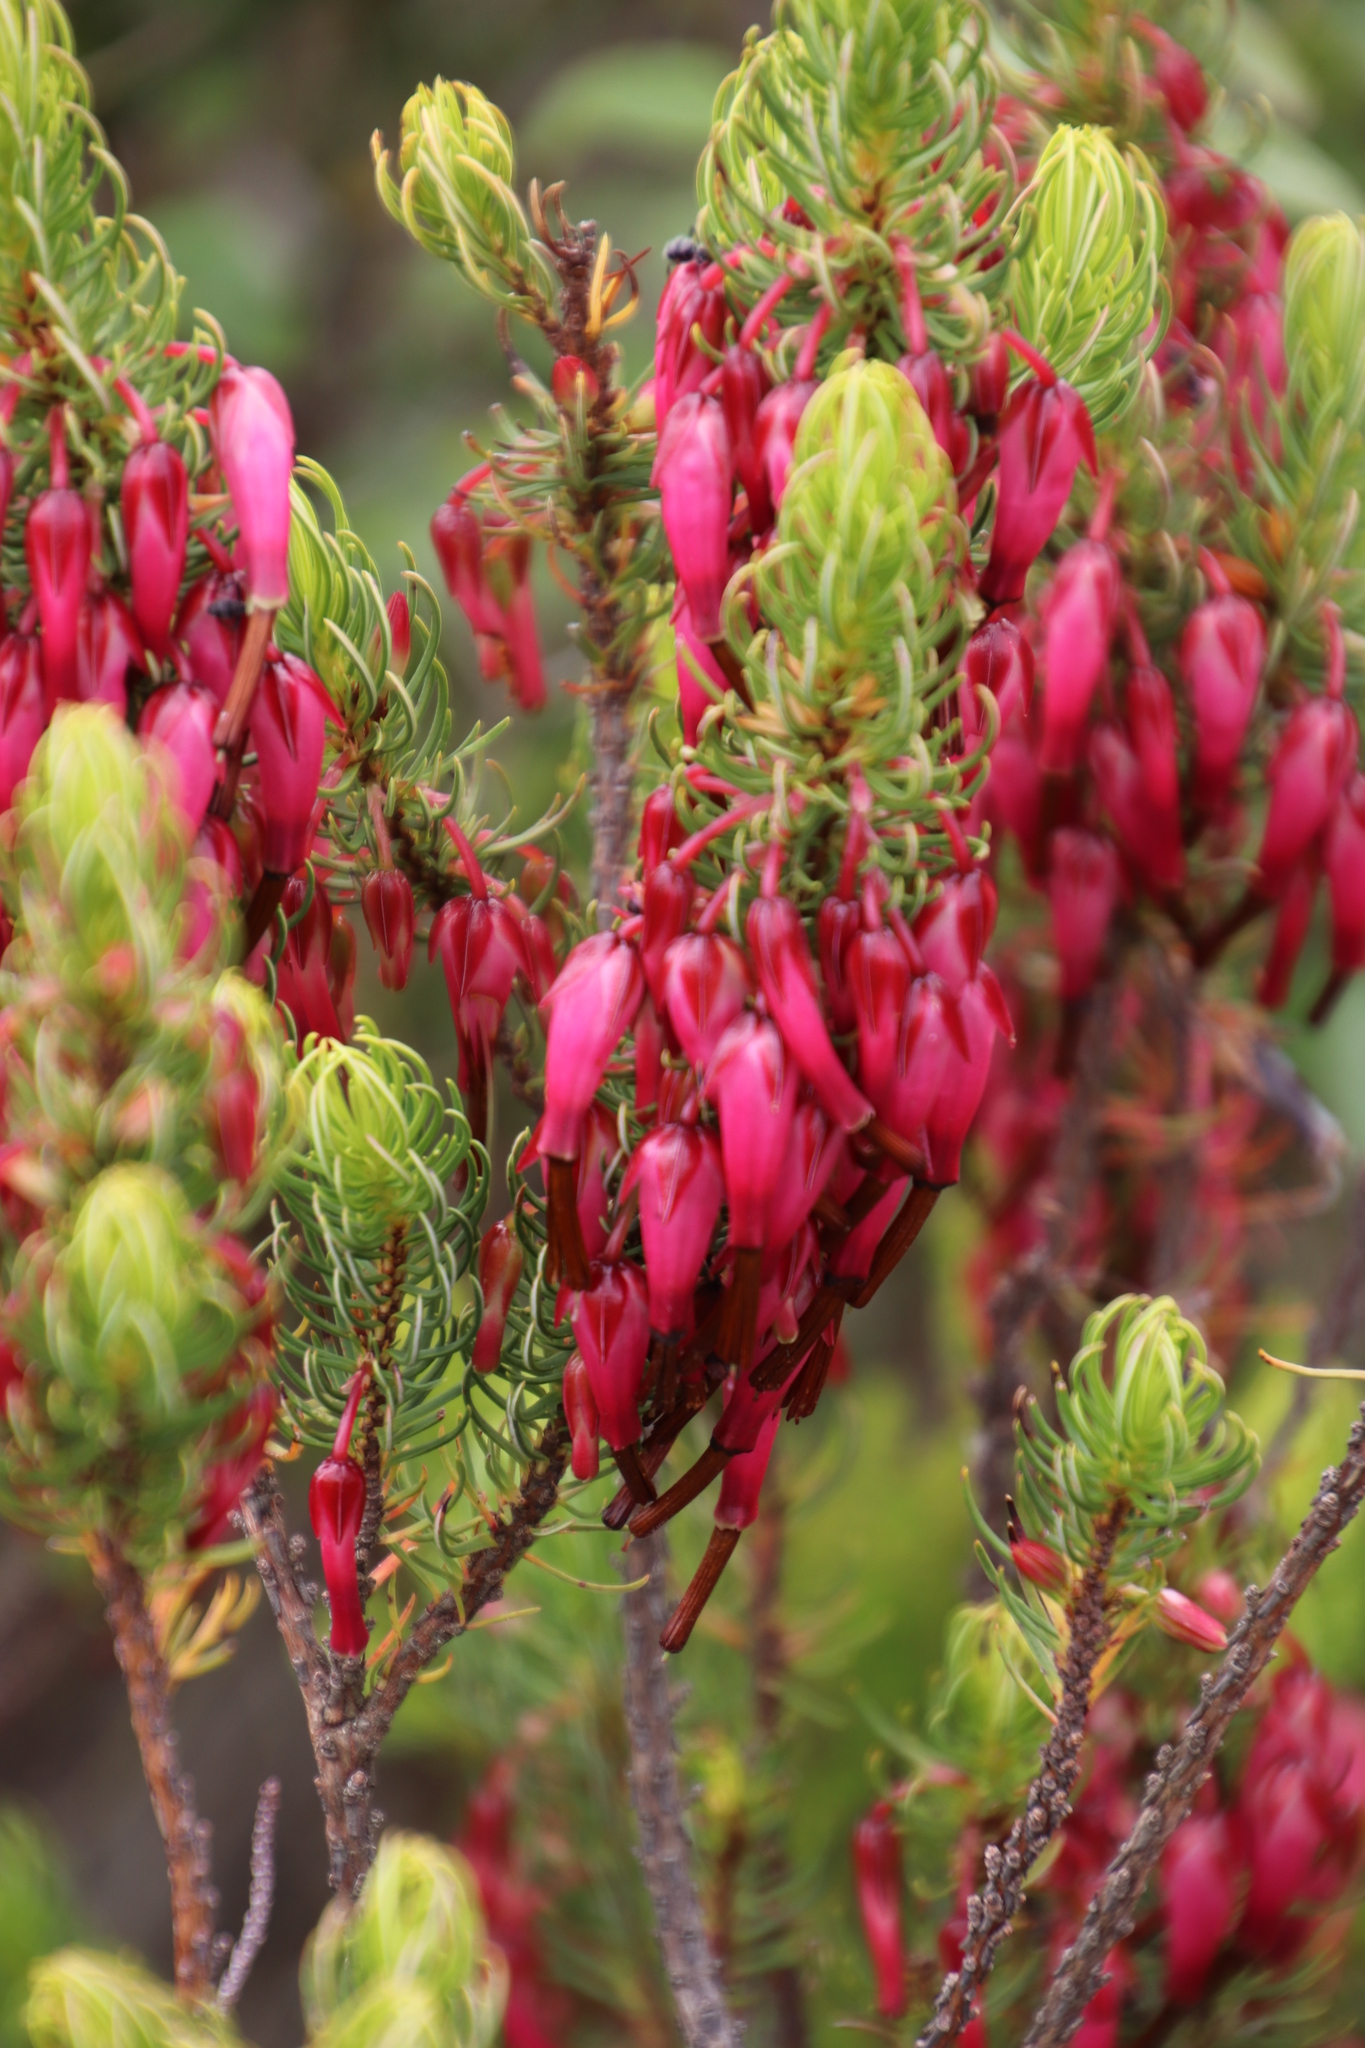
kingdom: Plantae
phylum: Tracheophyta
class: Magnoliopsida
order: Ericales
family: Ericaceae
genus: Erica
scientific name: Erica plukenetii
